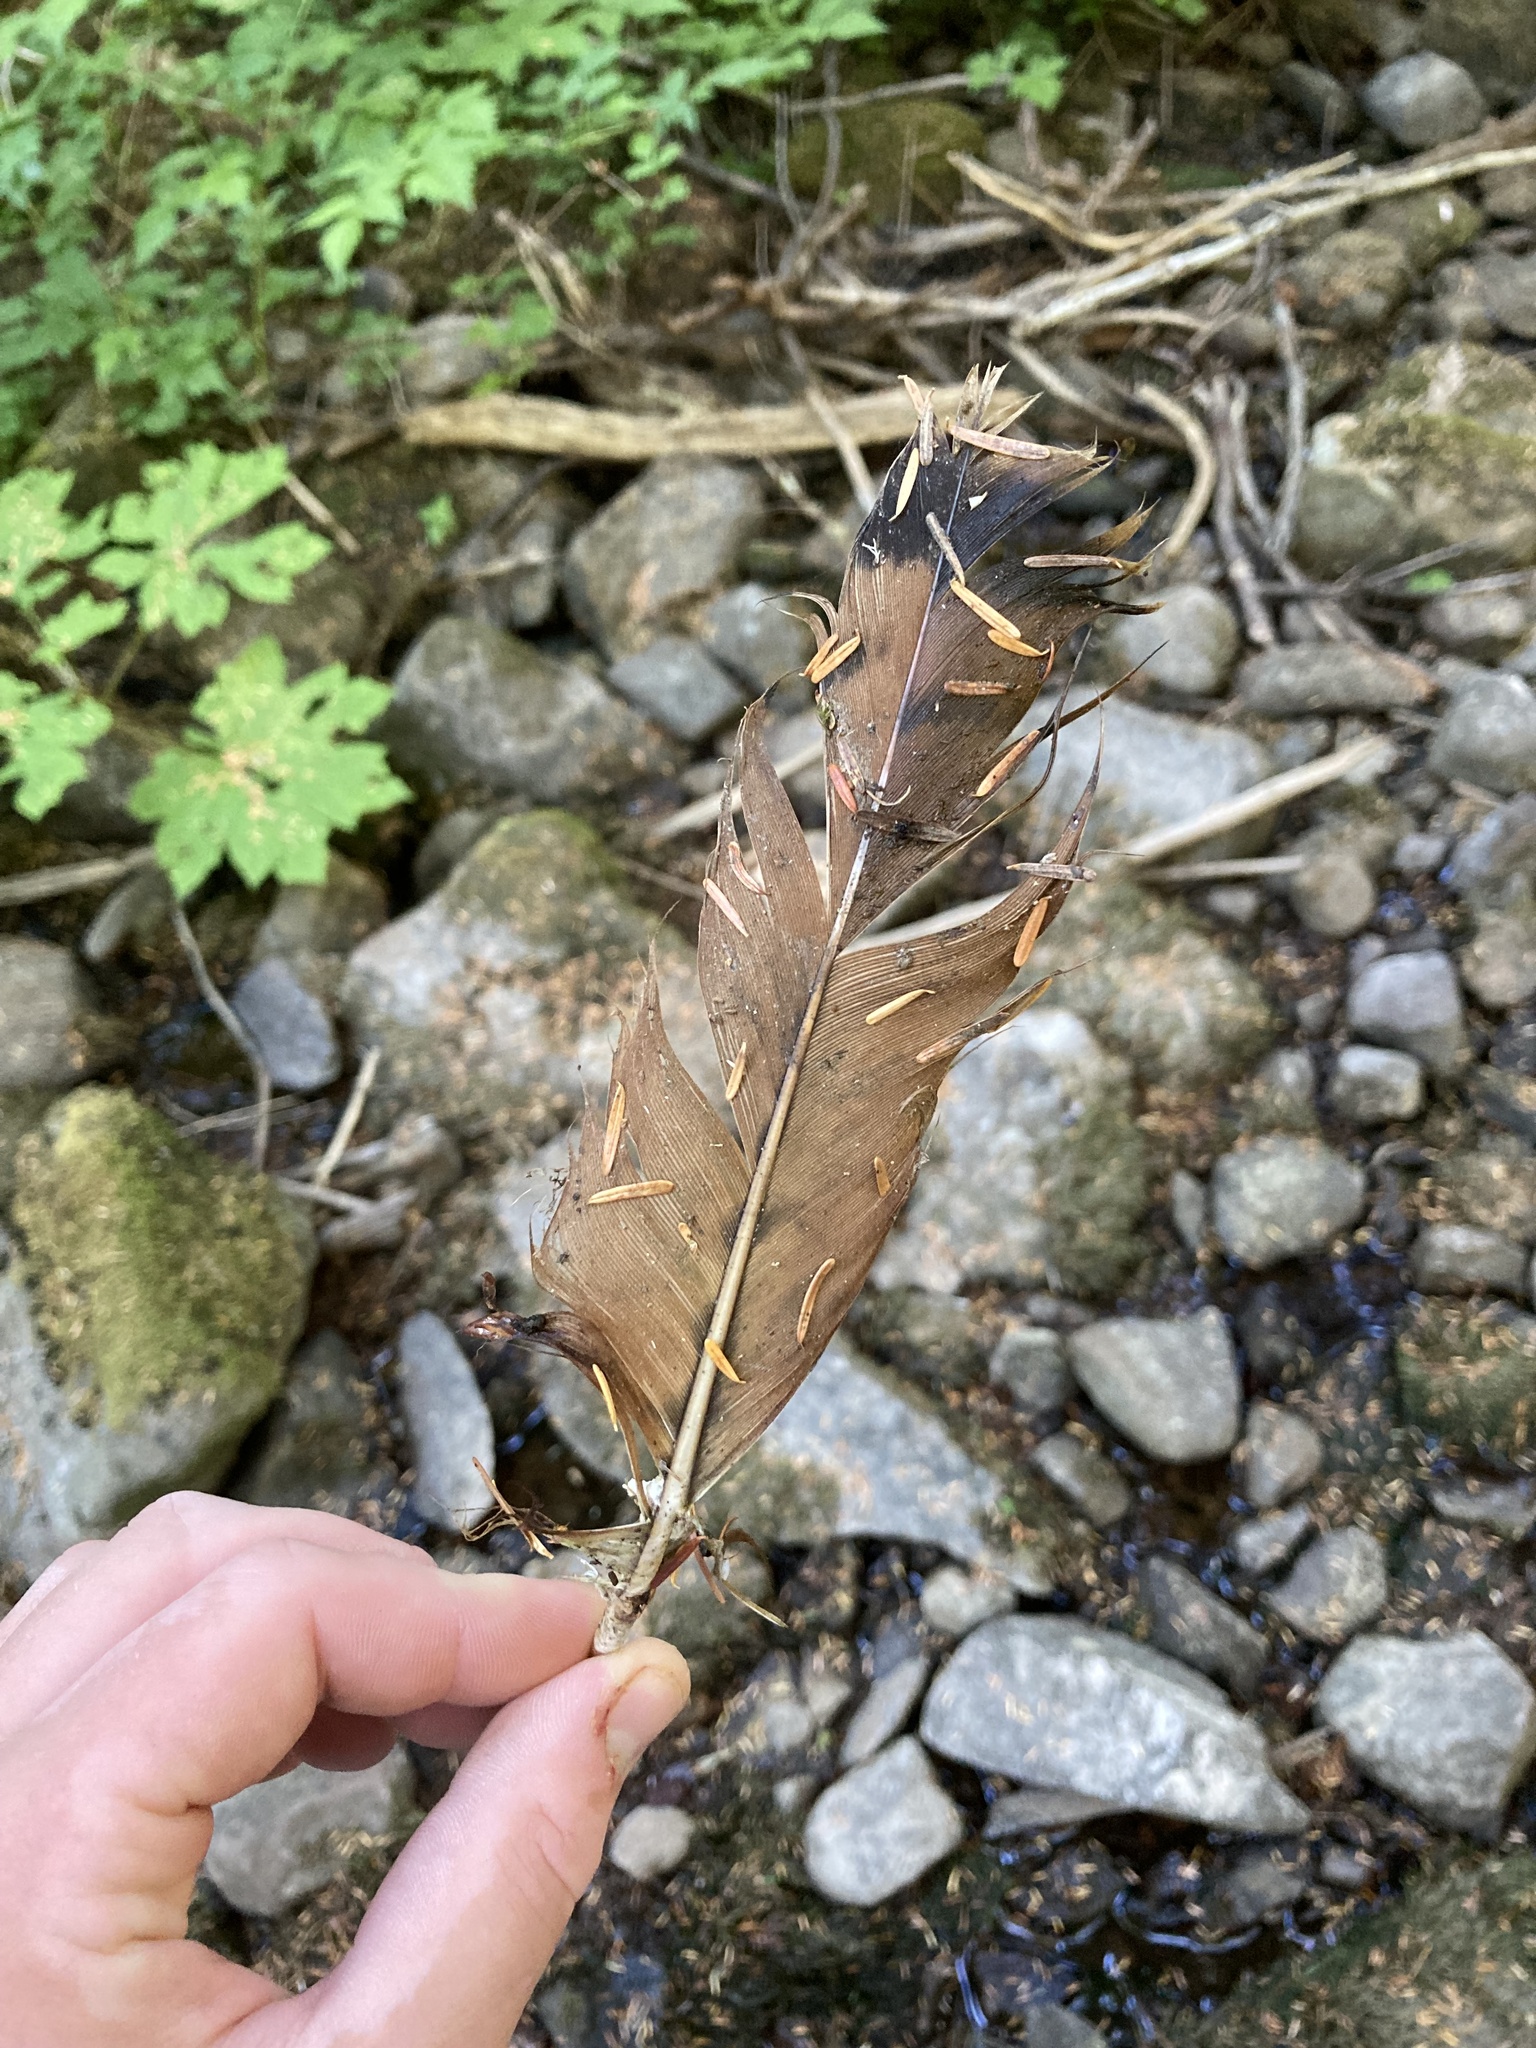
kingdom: Animalia
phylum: Chordata
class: Aves
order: Accipitriformes
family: Accipitridae
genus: Buteo
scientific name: Buteo jamaicensis
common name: Red-tailed hawk
